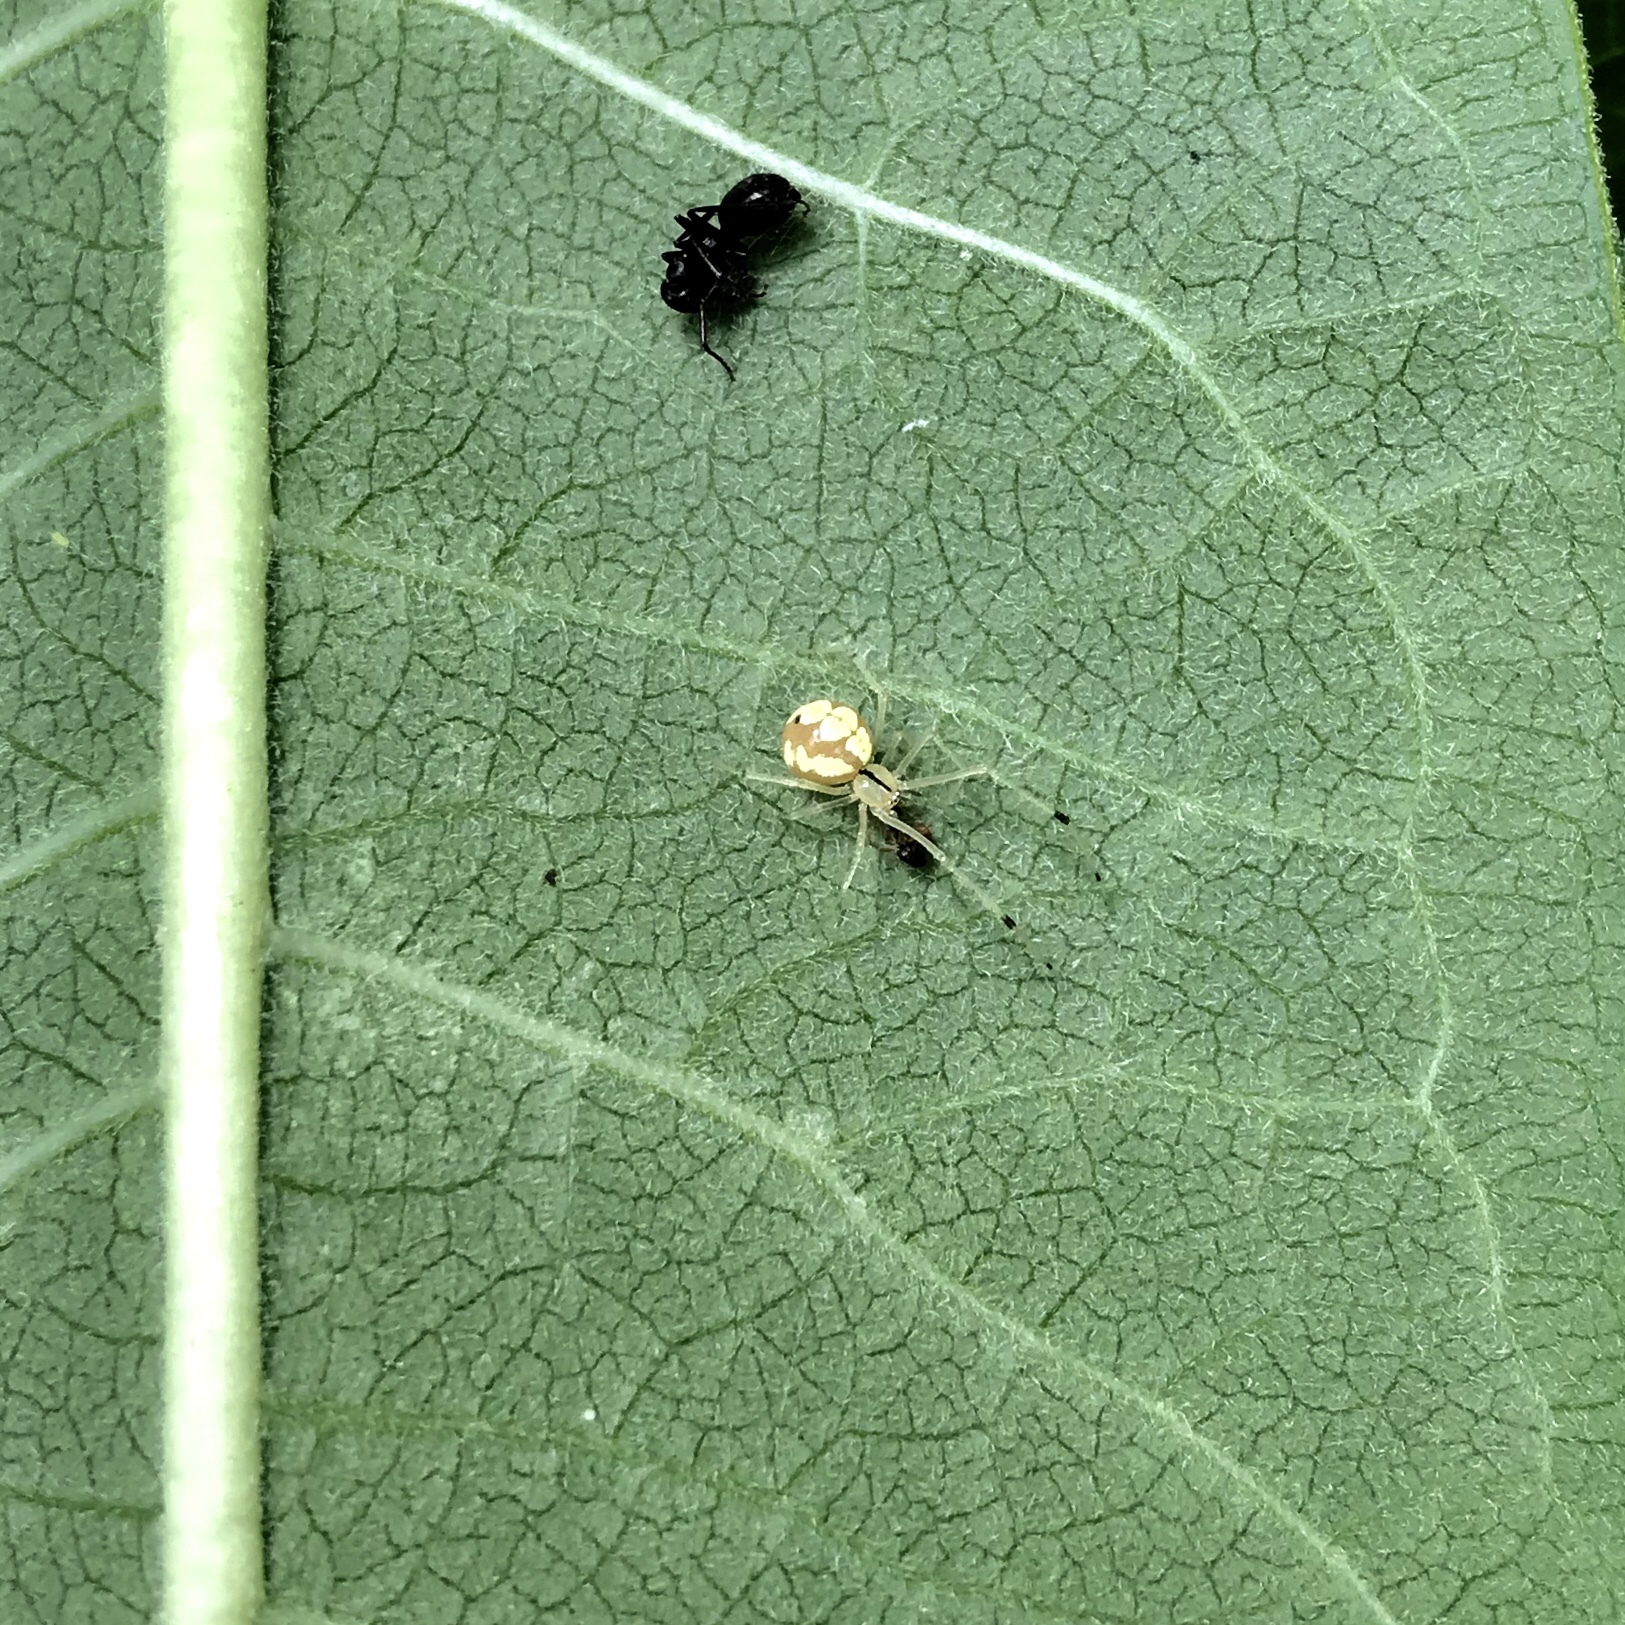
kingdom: Animalia
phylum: Arthropoda
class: Arachnida
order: Araneae
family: Theridiidae
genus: Theridion
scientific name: Theridion frondeum
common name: Eastern long-legged cobweaver
